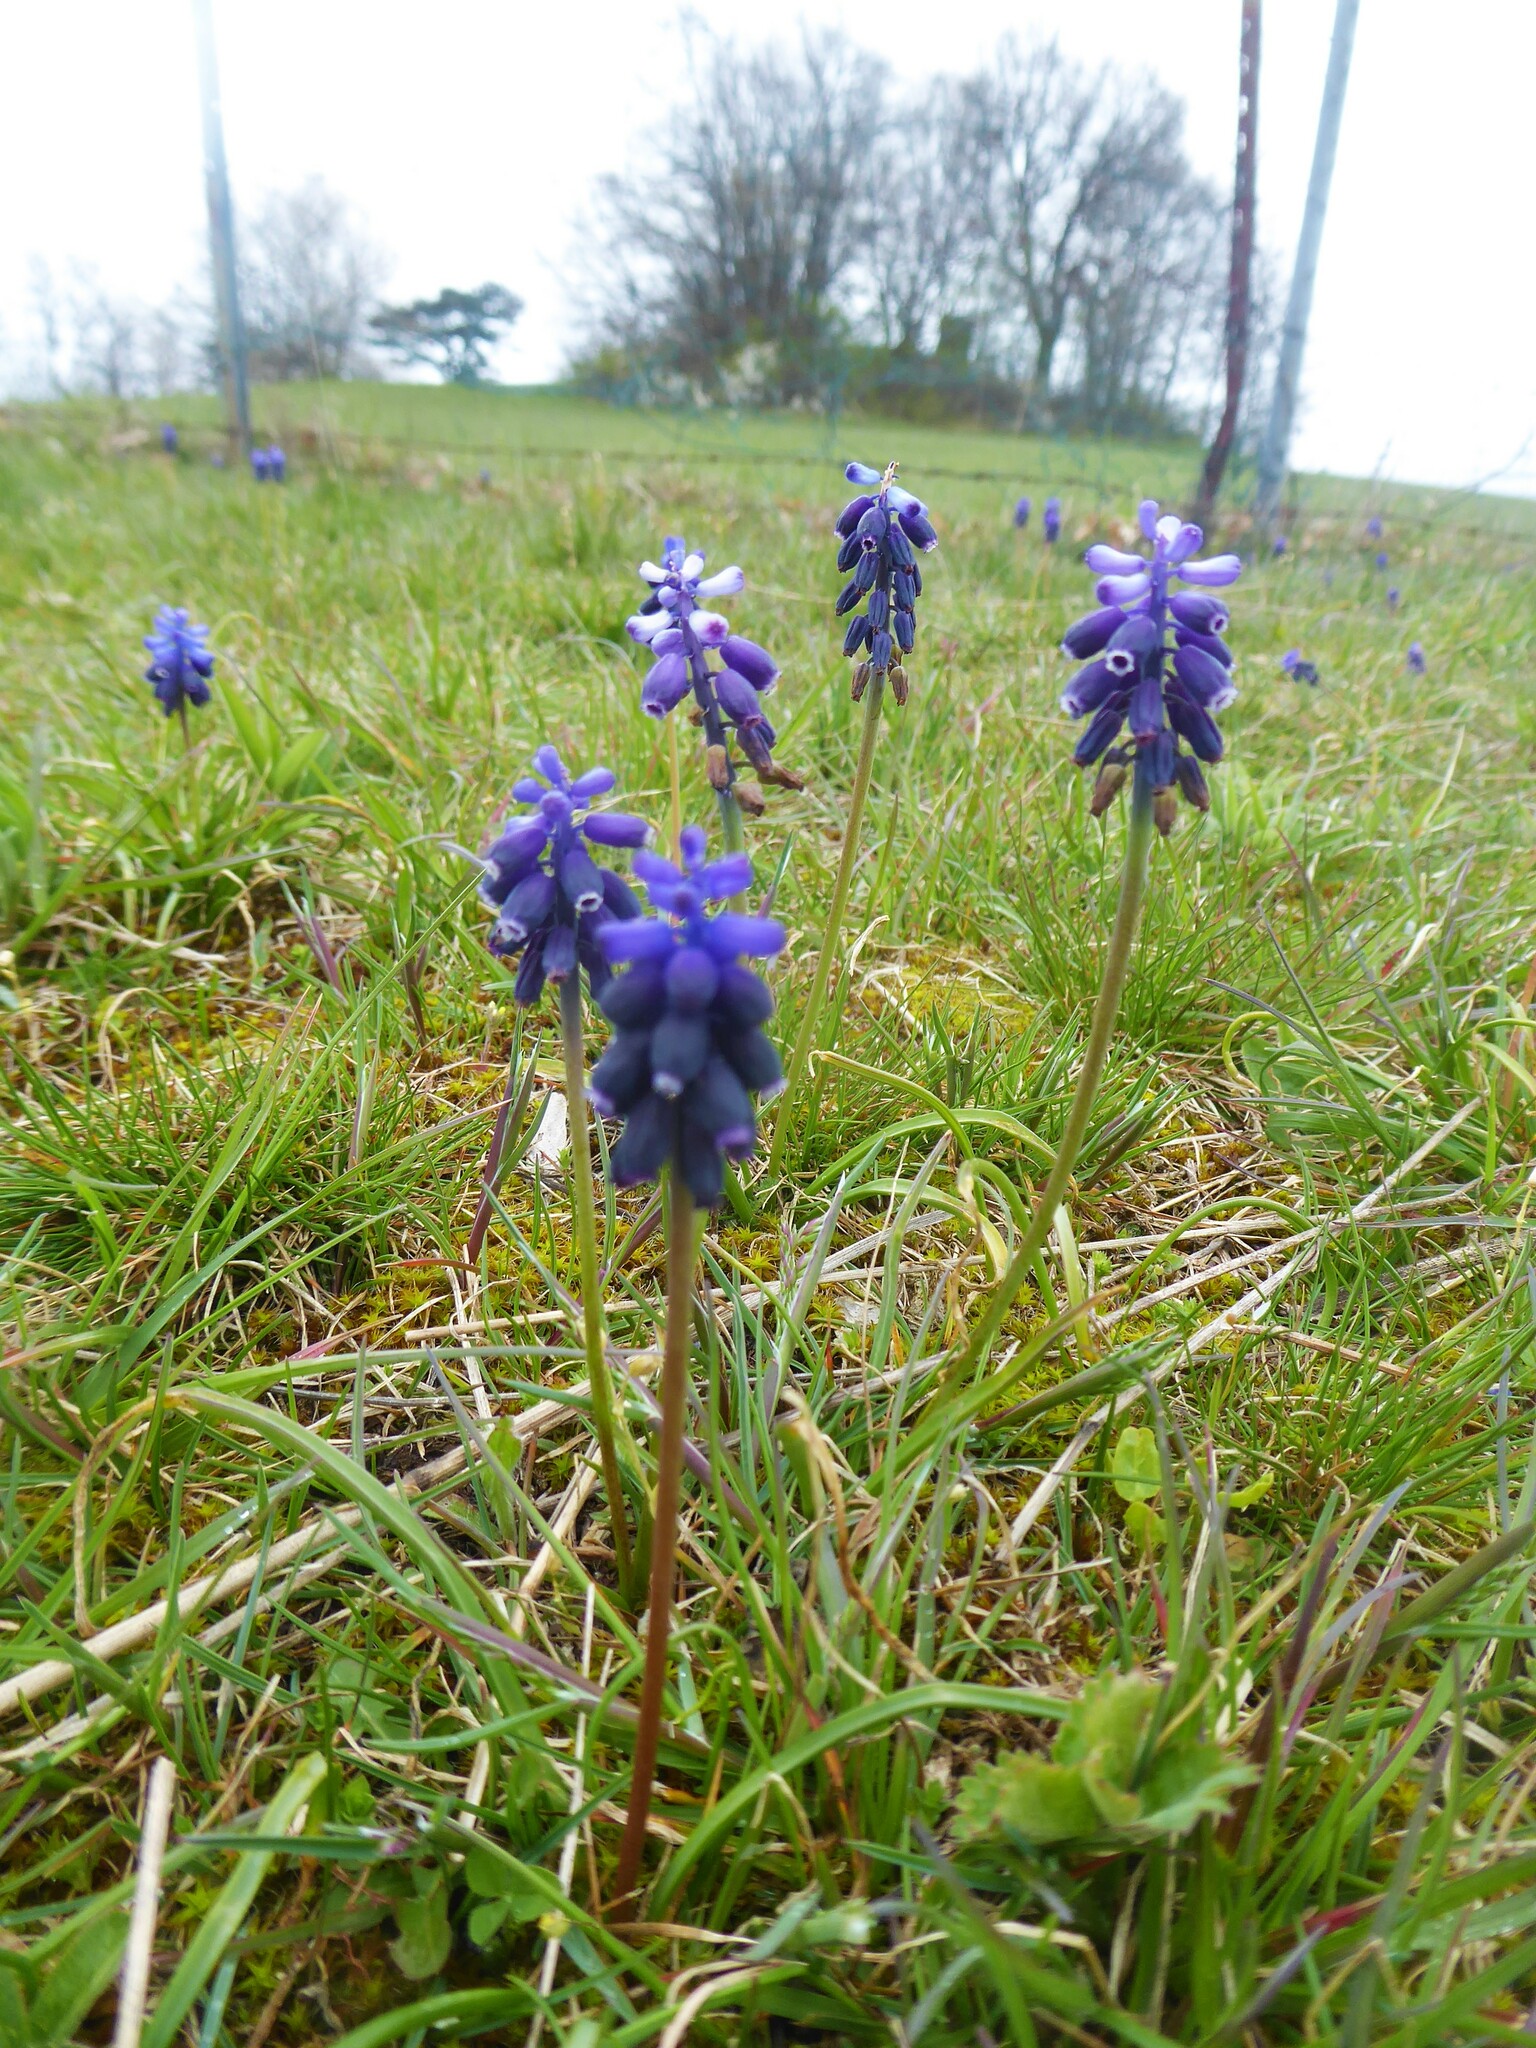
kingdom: Plantae
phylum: Tracheophyta
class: Liliopsida
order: Asparagales
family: Asparagaceae
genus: Muscari
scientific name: Muscari neglectum
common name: Grape-hyacinth
